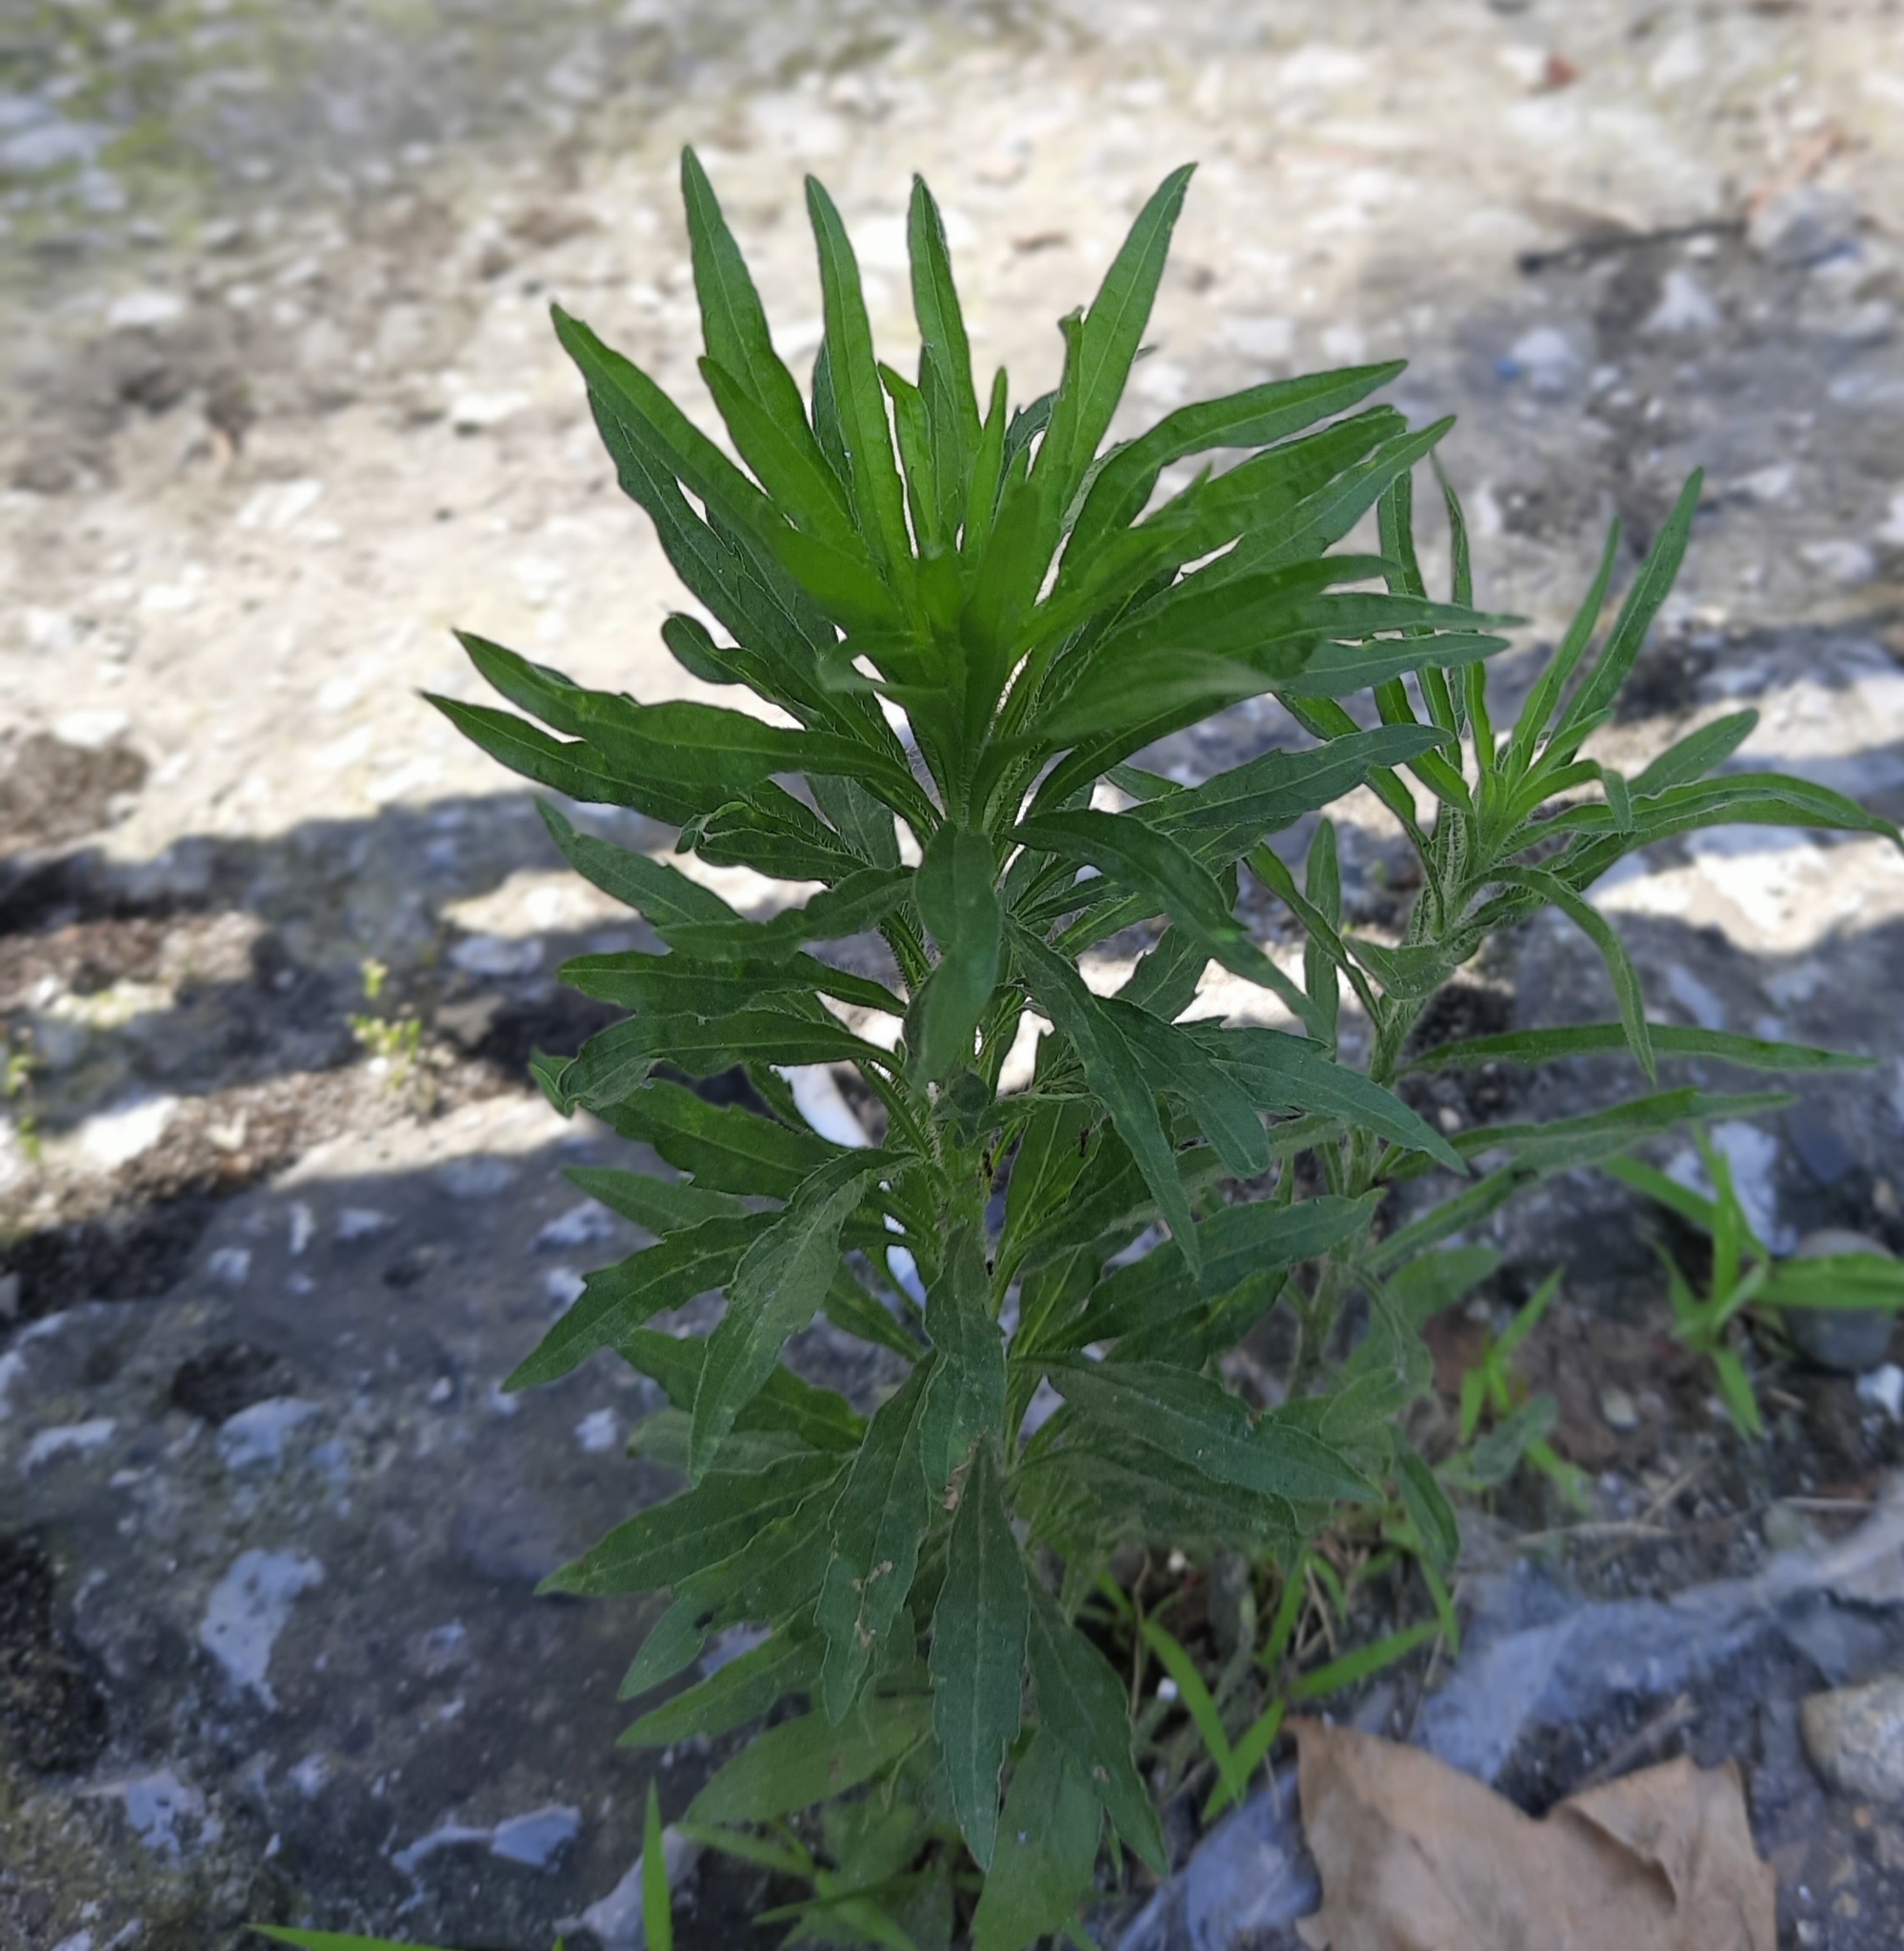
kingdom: Plantae
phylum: Tracheophyta
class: Magnoliopsida
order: Asterales
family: Asteraceae
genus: Erigeron
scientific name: Erigeron canadensis
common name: Canadian fleabane
